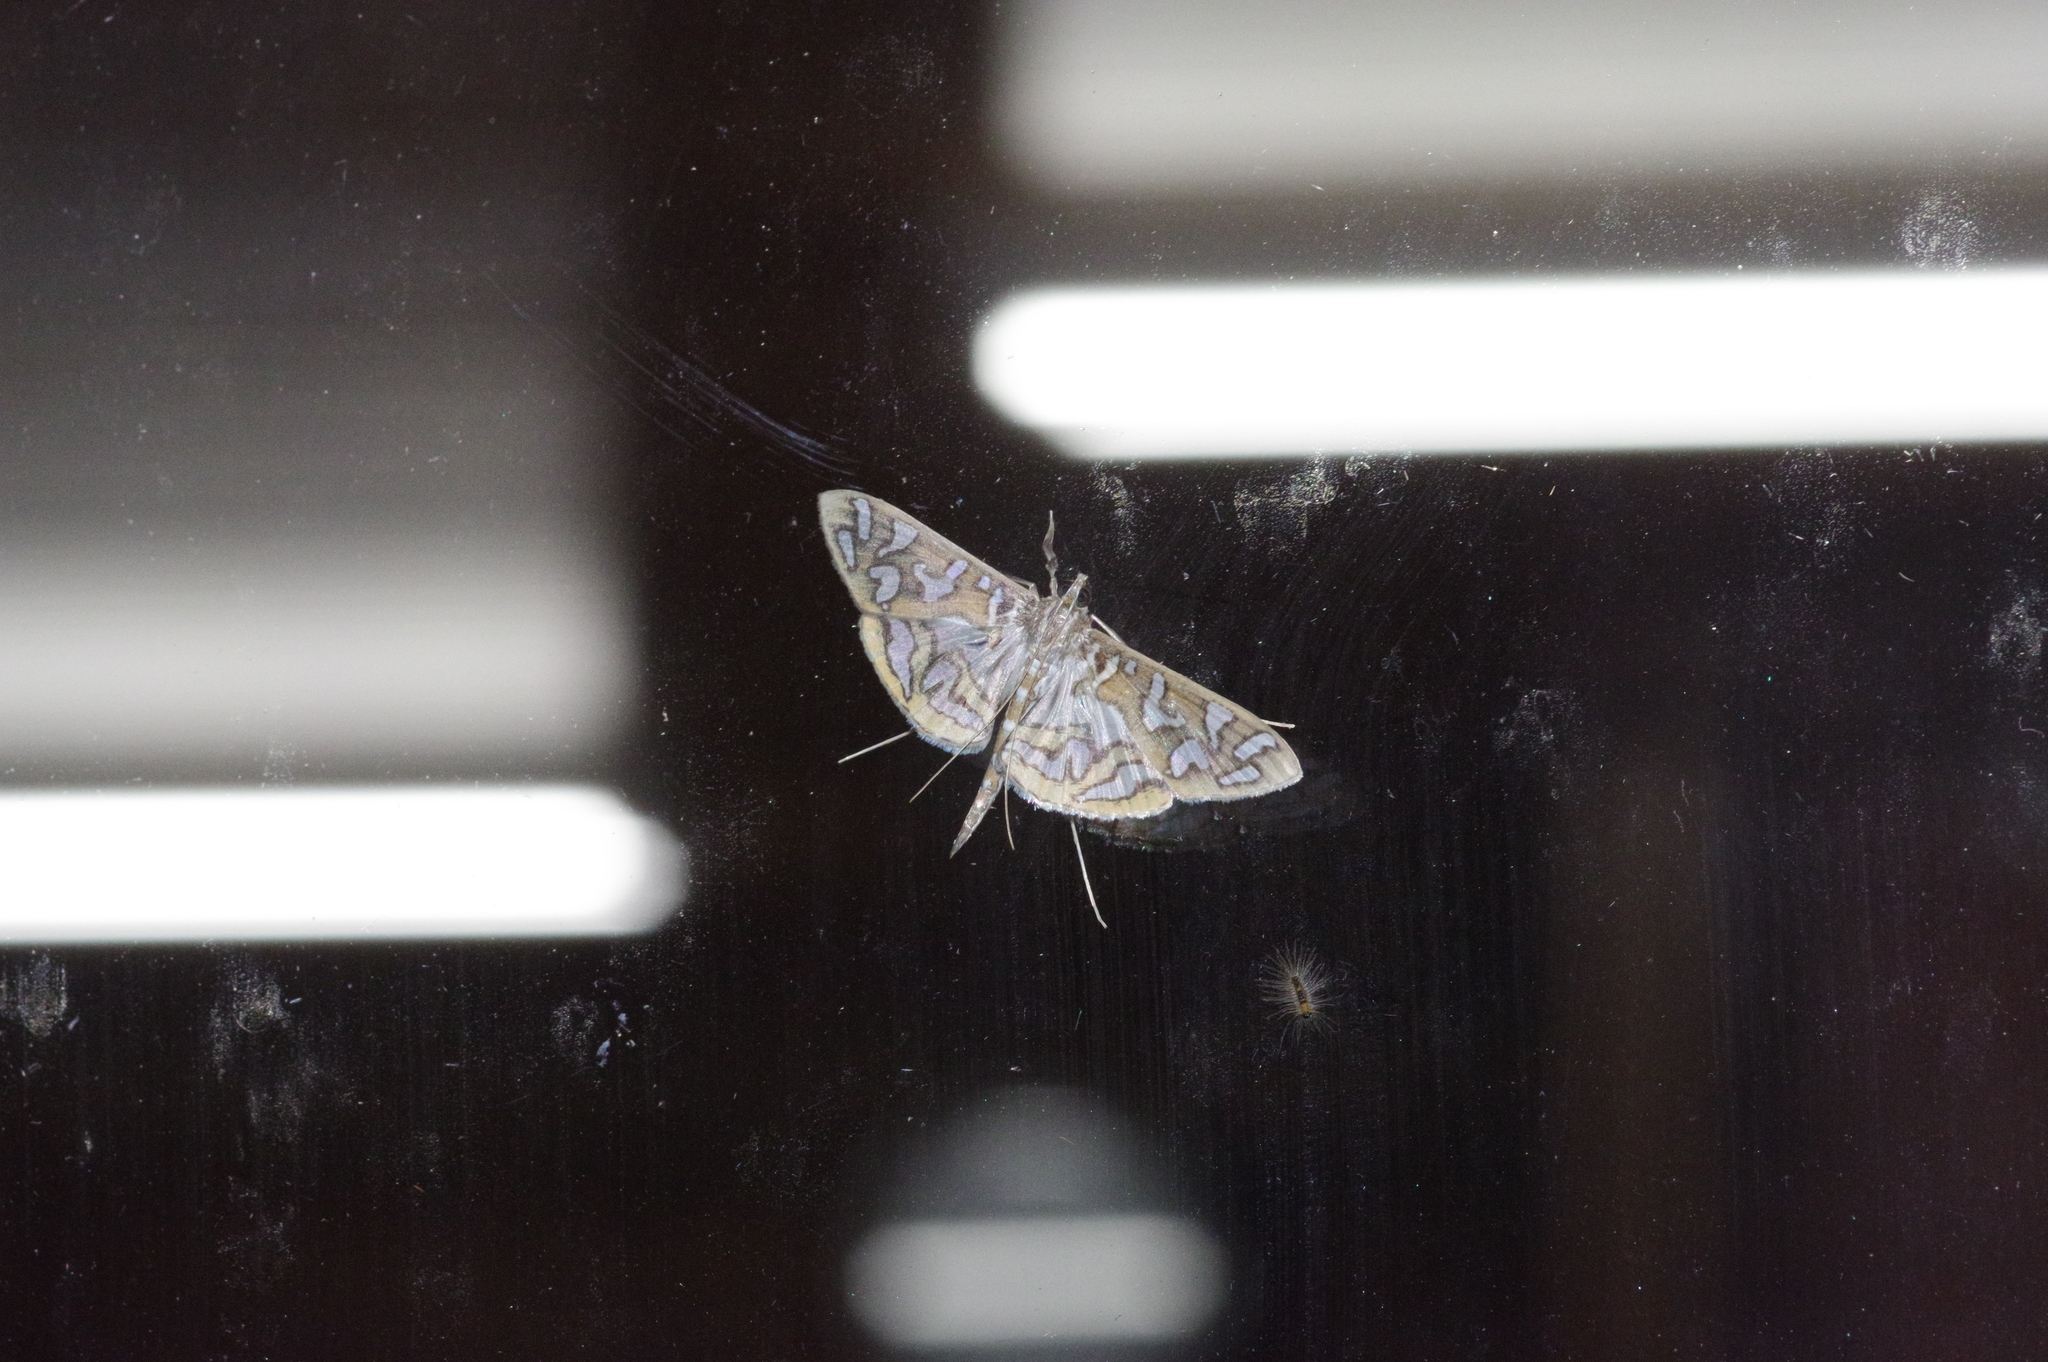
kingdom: Animalia
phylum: Arthropoda
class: Insecta
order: Lepidoptera
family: Crambidae
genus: Nausinoe
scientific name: Nausinoe perspectata
